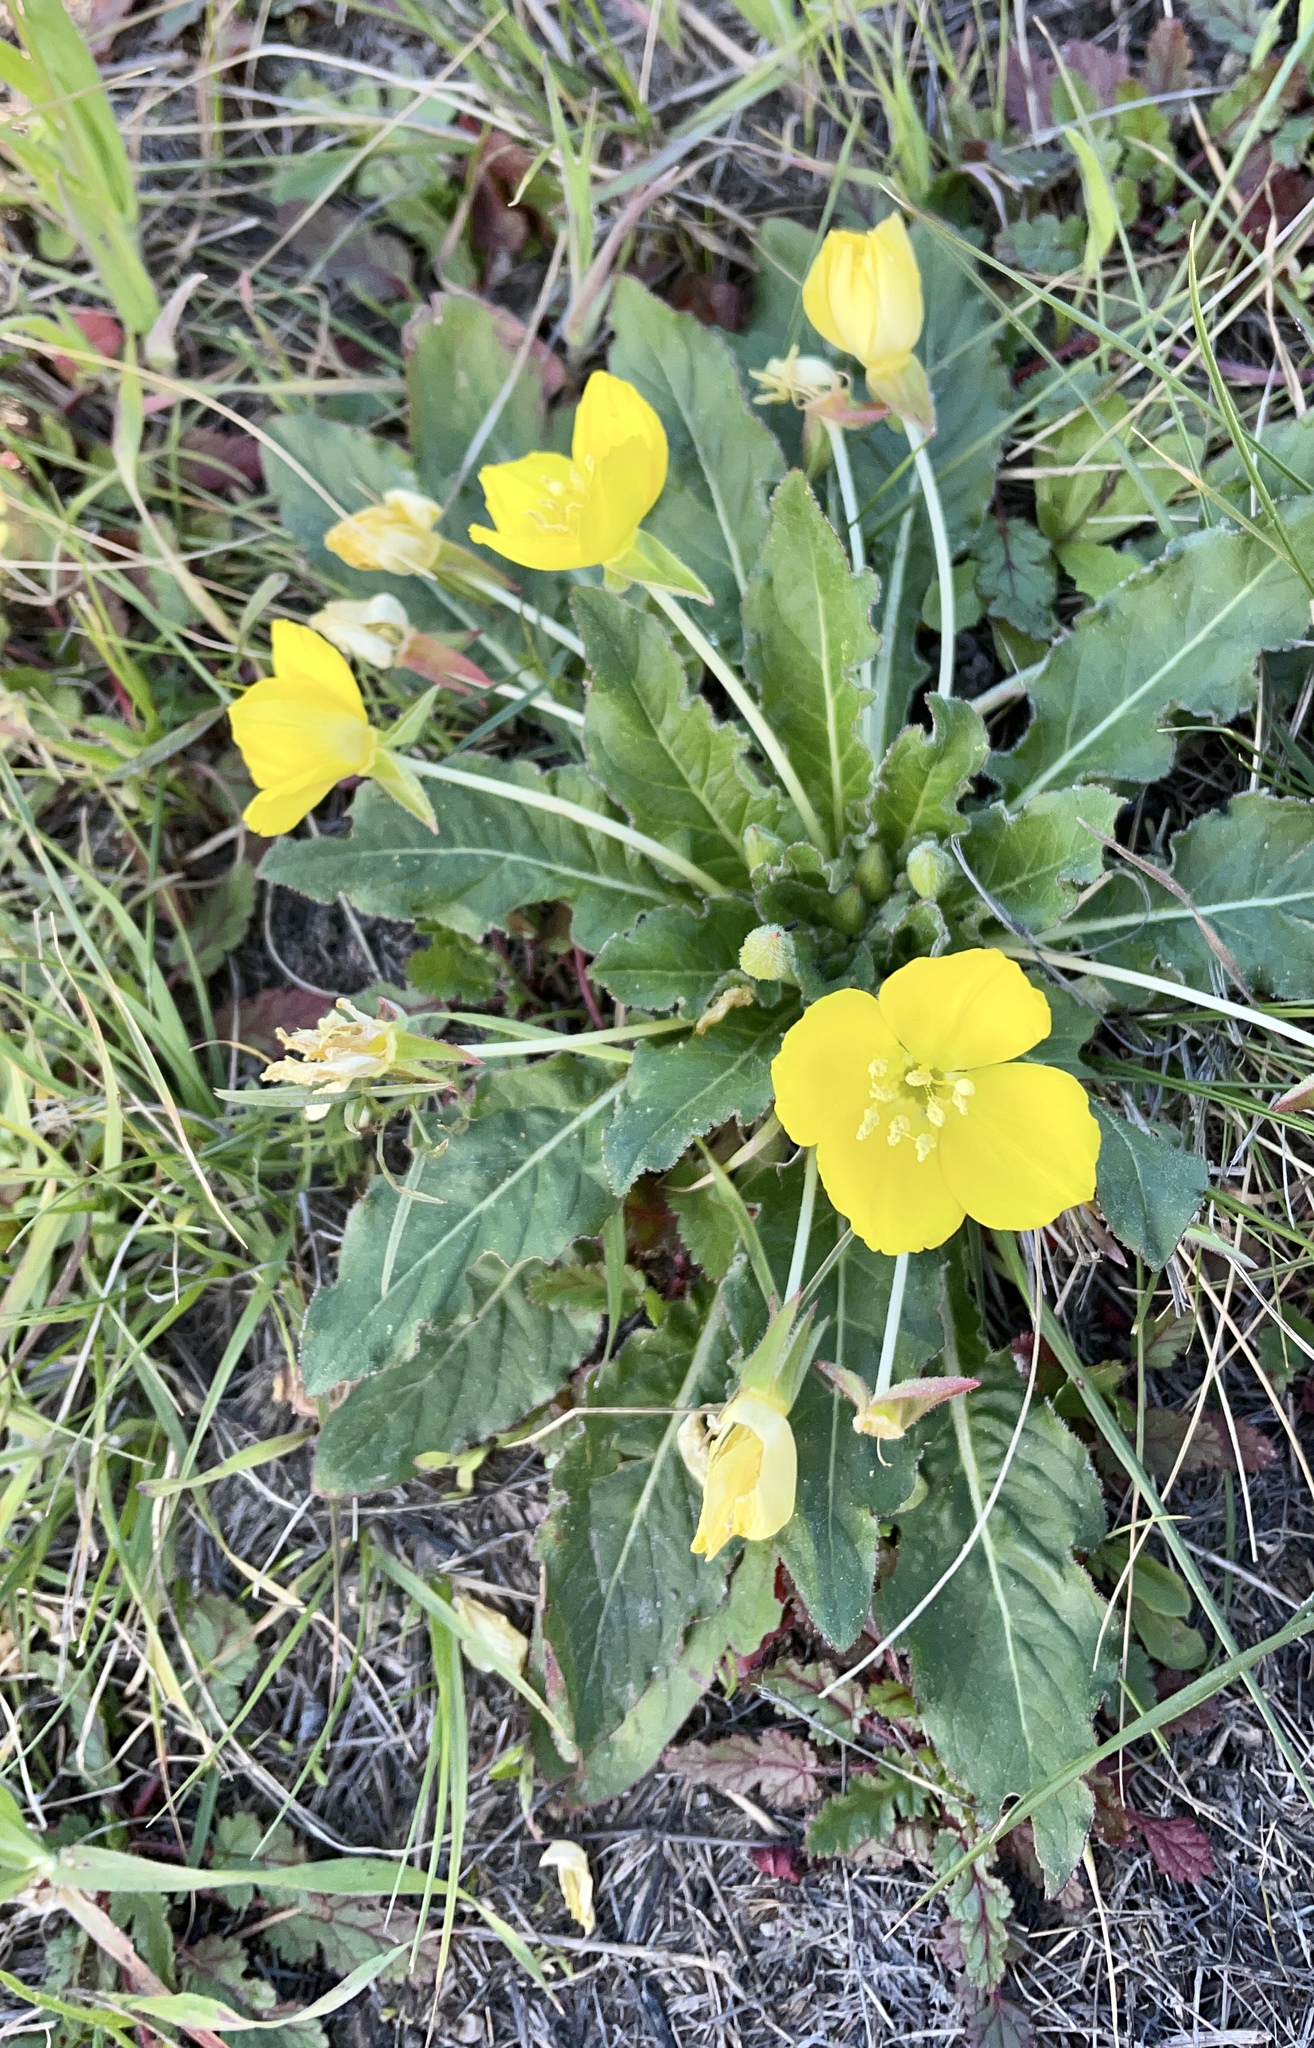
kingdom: Plantae
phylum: Tracheophyta
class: Magnoliopsida
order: Myrtales
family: Onagraceae
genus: Taraxia
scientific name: Taraxia ovata
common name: Goldeneggs
